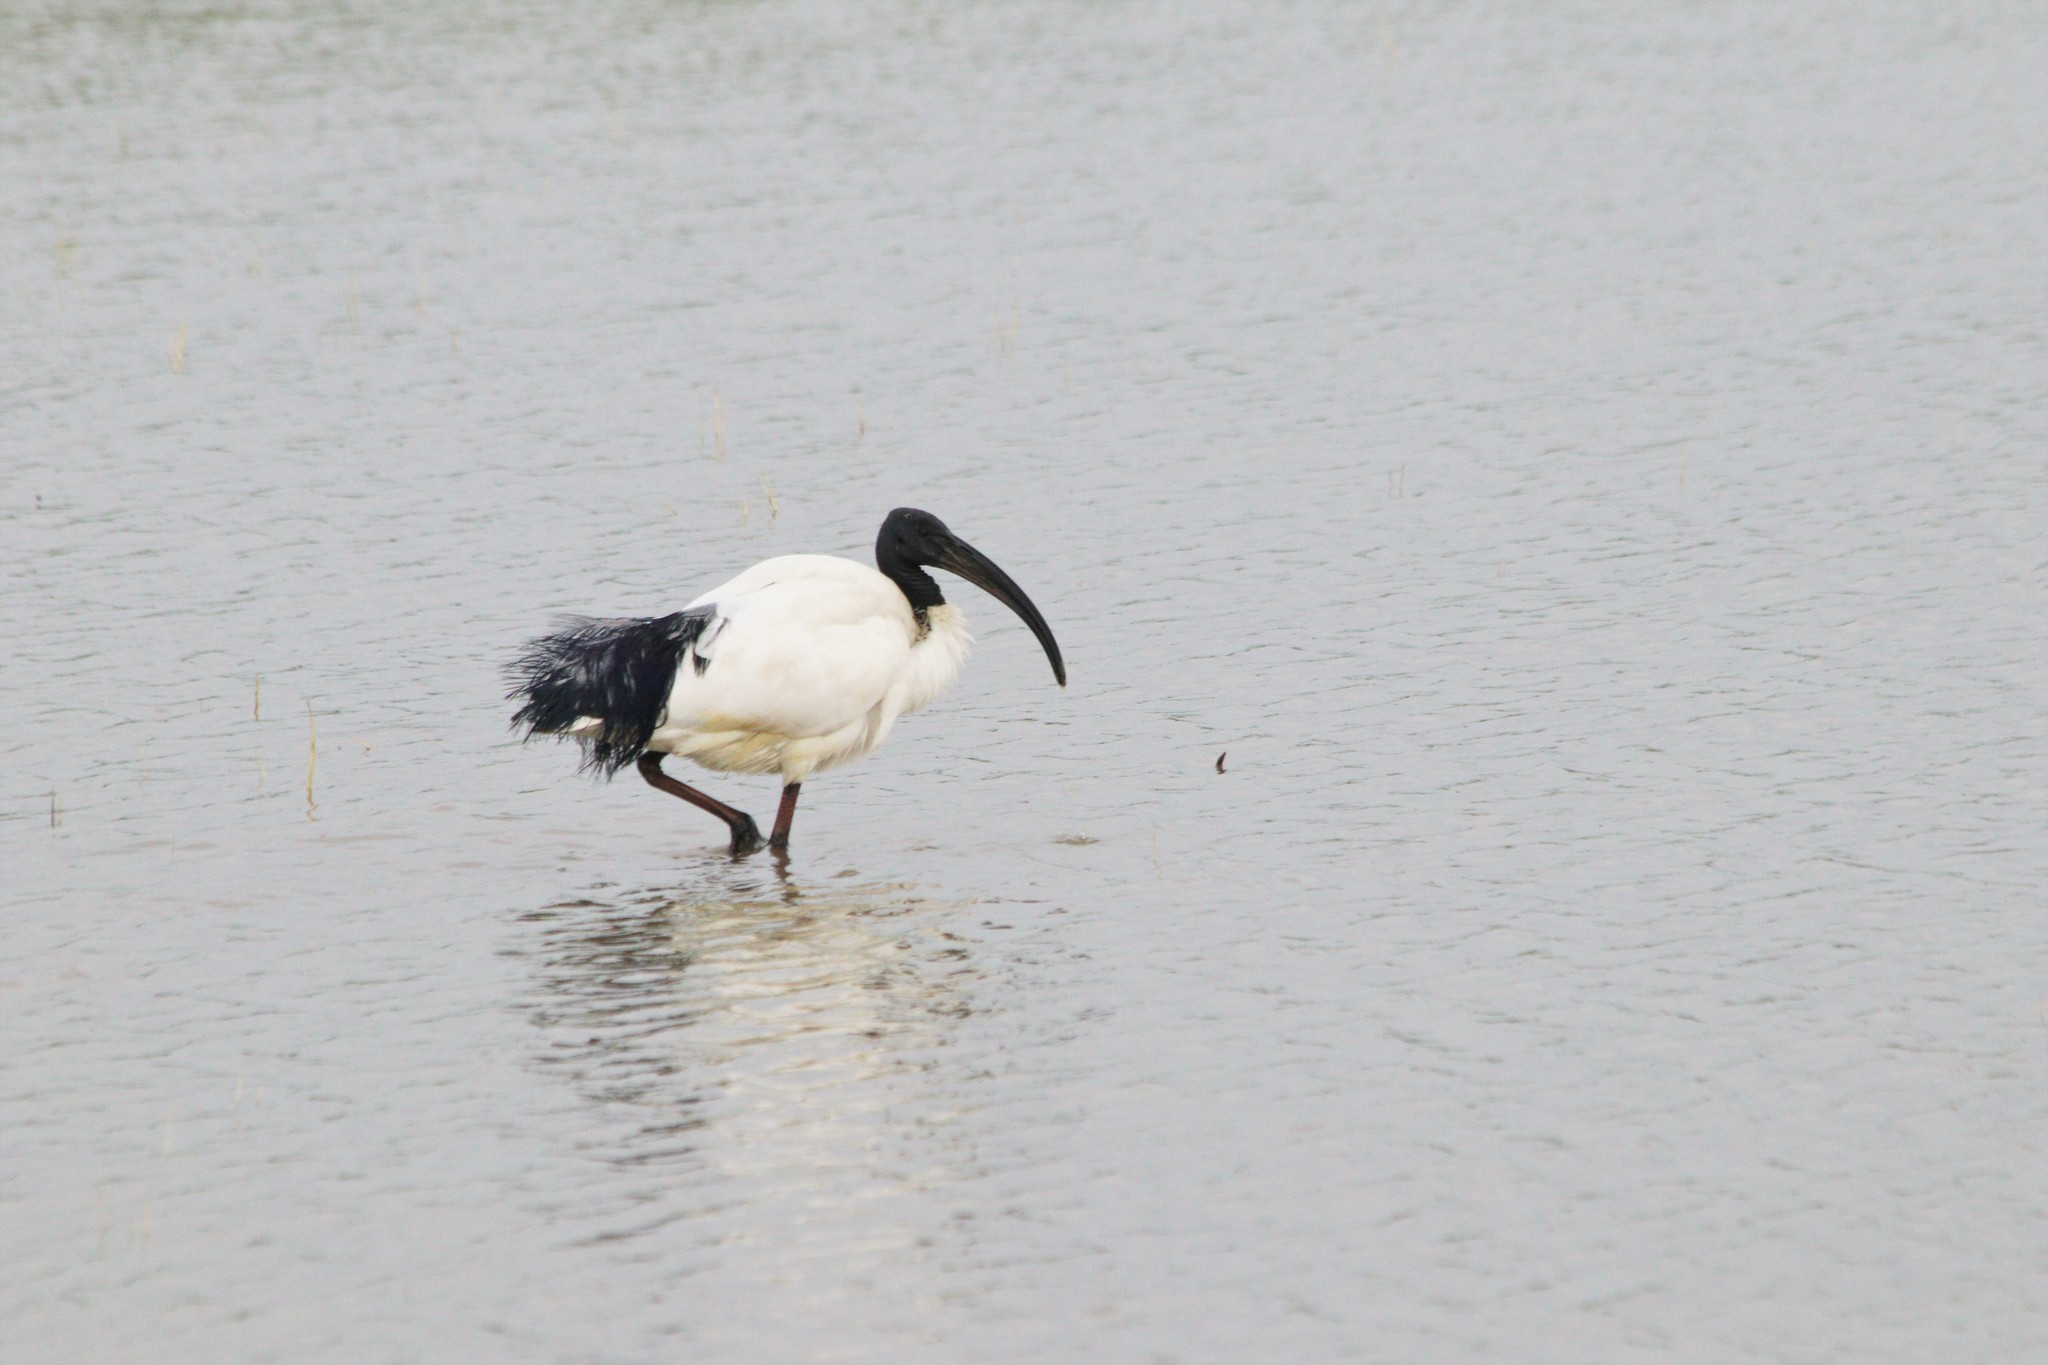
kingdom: Animalia
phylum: Chordata
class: Aves
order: Pelecaniformes
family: Threskiornithidae
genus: Threskiornis
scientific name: Threskiornis aethiopicus
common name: Sacred ibis
